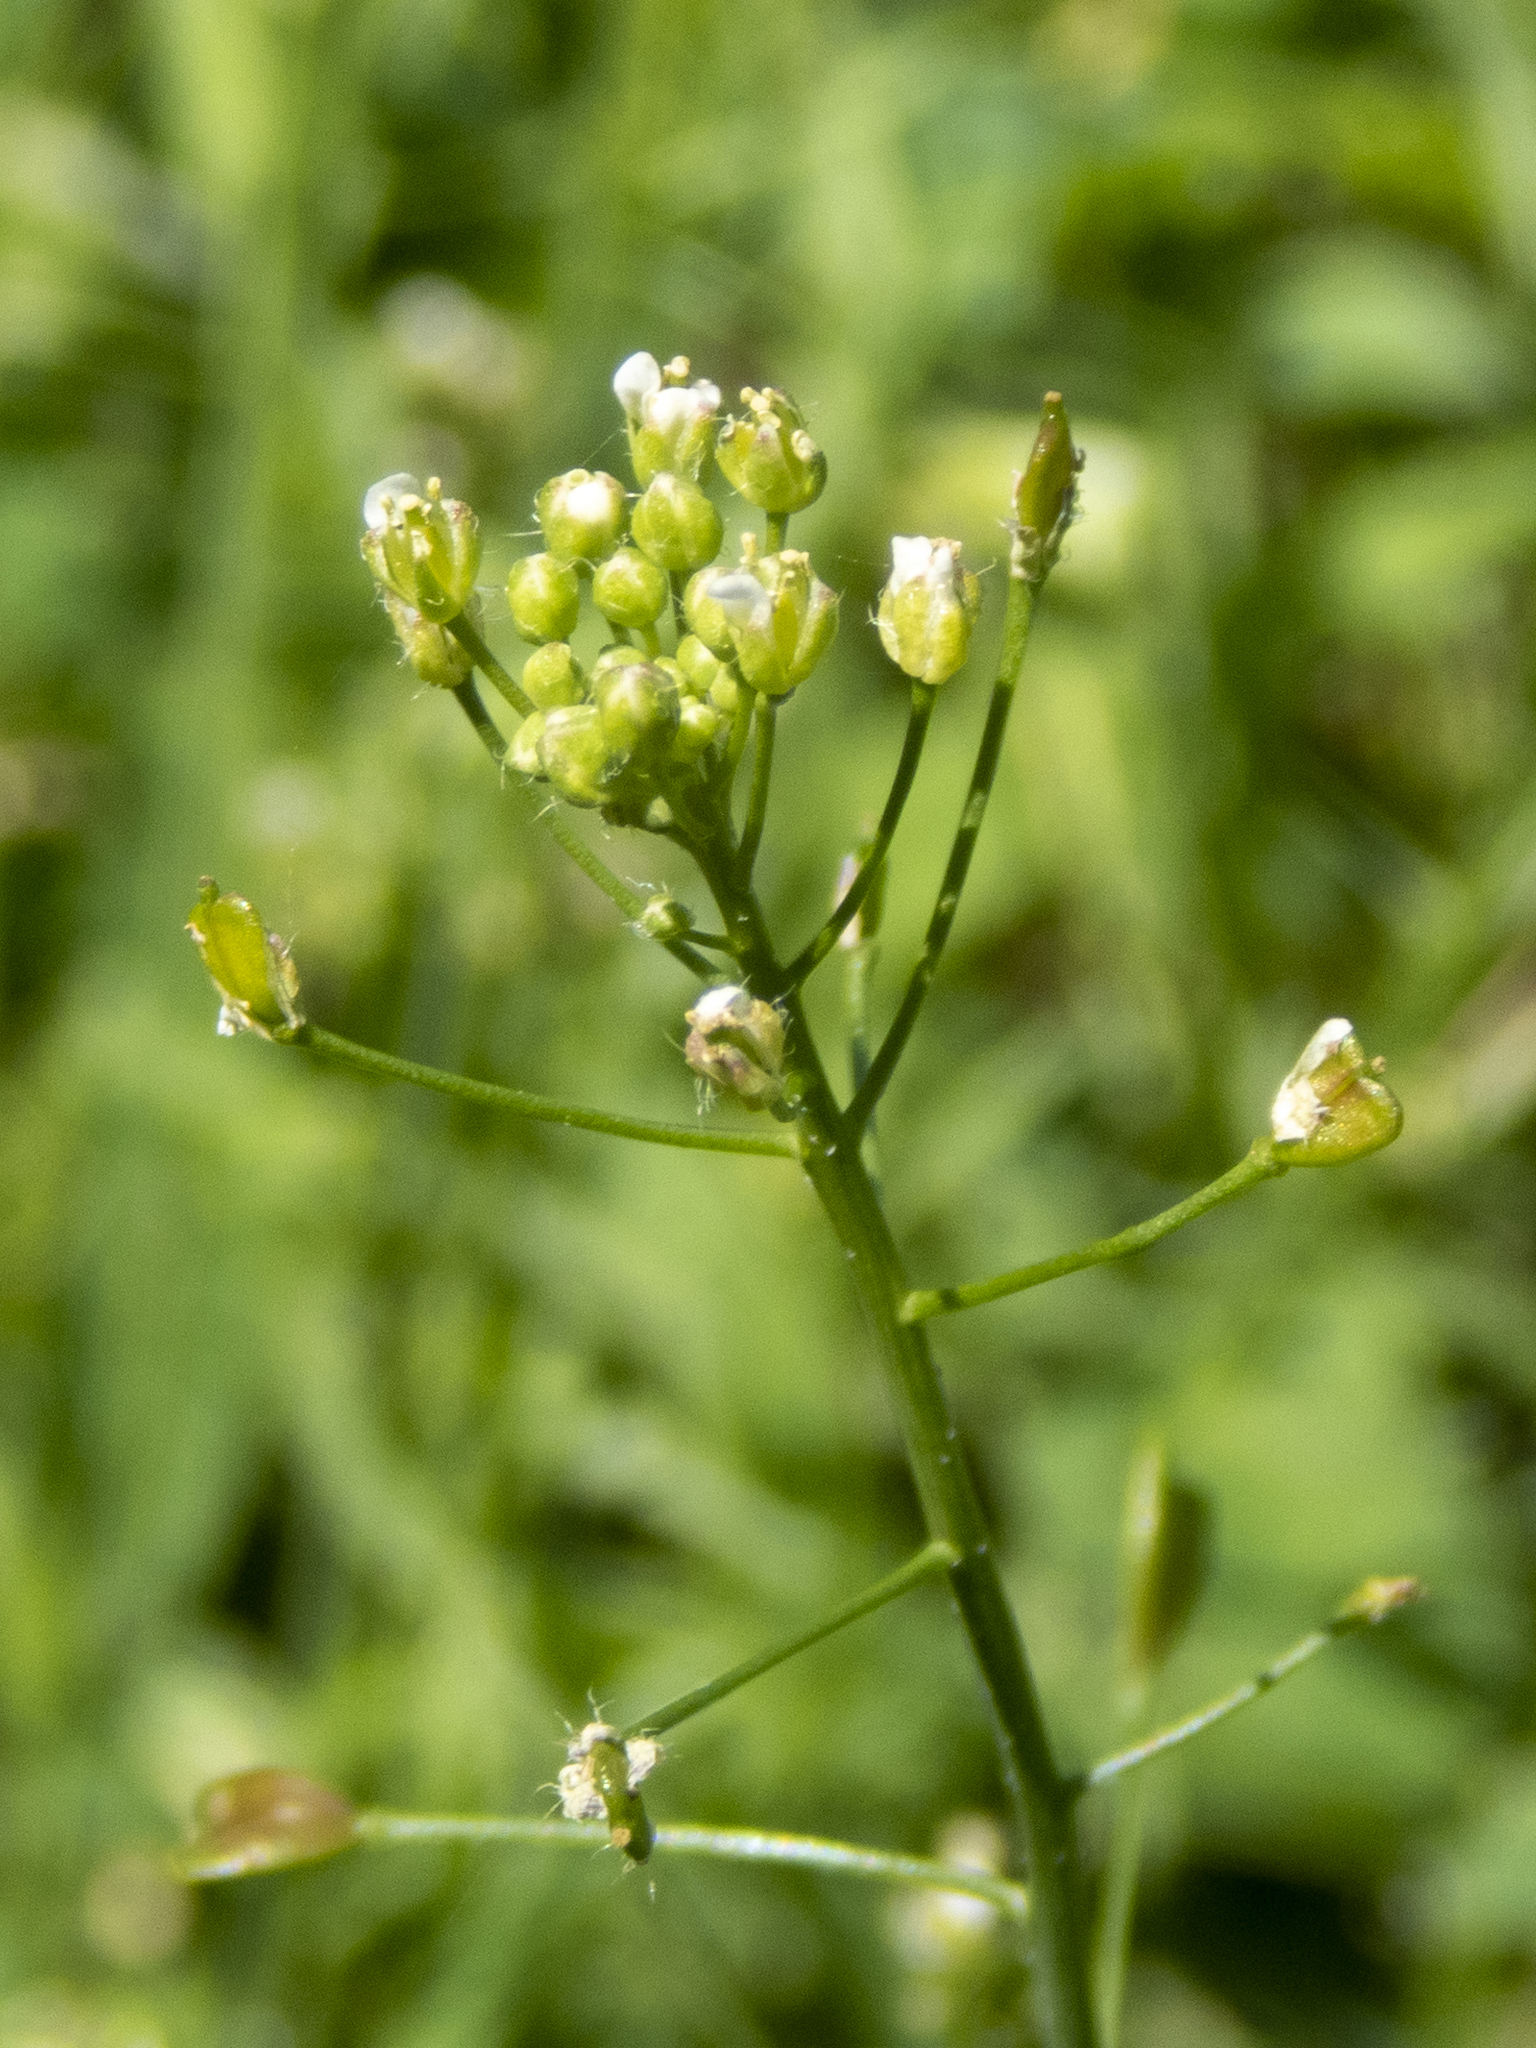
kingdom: Plantae
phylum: Tracheophyta
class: Magnoliopsida
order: Brassicales
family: Brassicaceae
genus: Capsella
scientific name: Capsella bursa-pastoris
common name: Shepherd's purse
